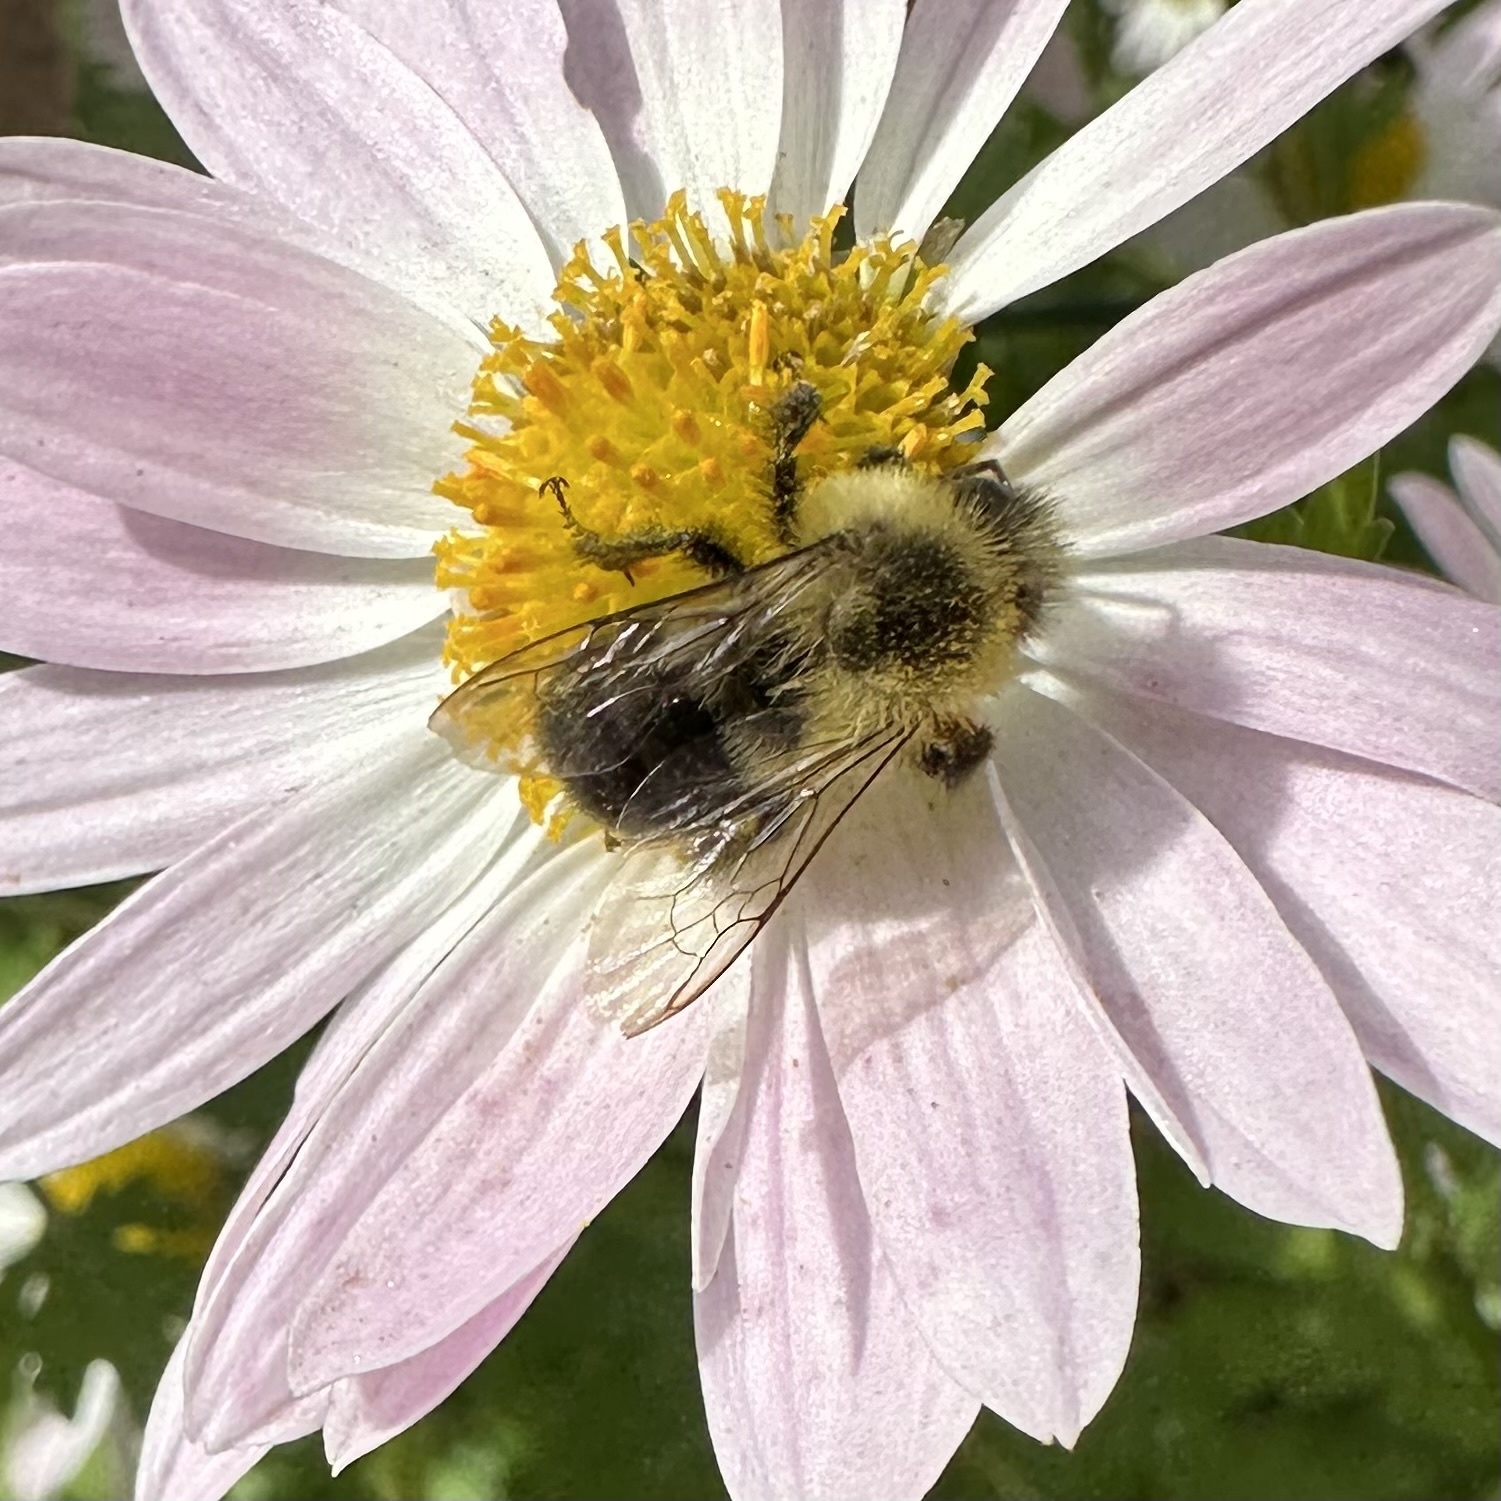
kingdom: Animalia
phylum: Arthropoda
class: Insecta
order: Hymenoptera
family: Apidae
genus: Bombus
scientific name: Bombus impatiens
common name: Common eastern bumble bee
